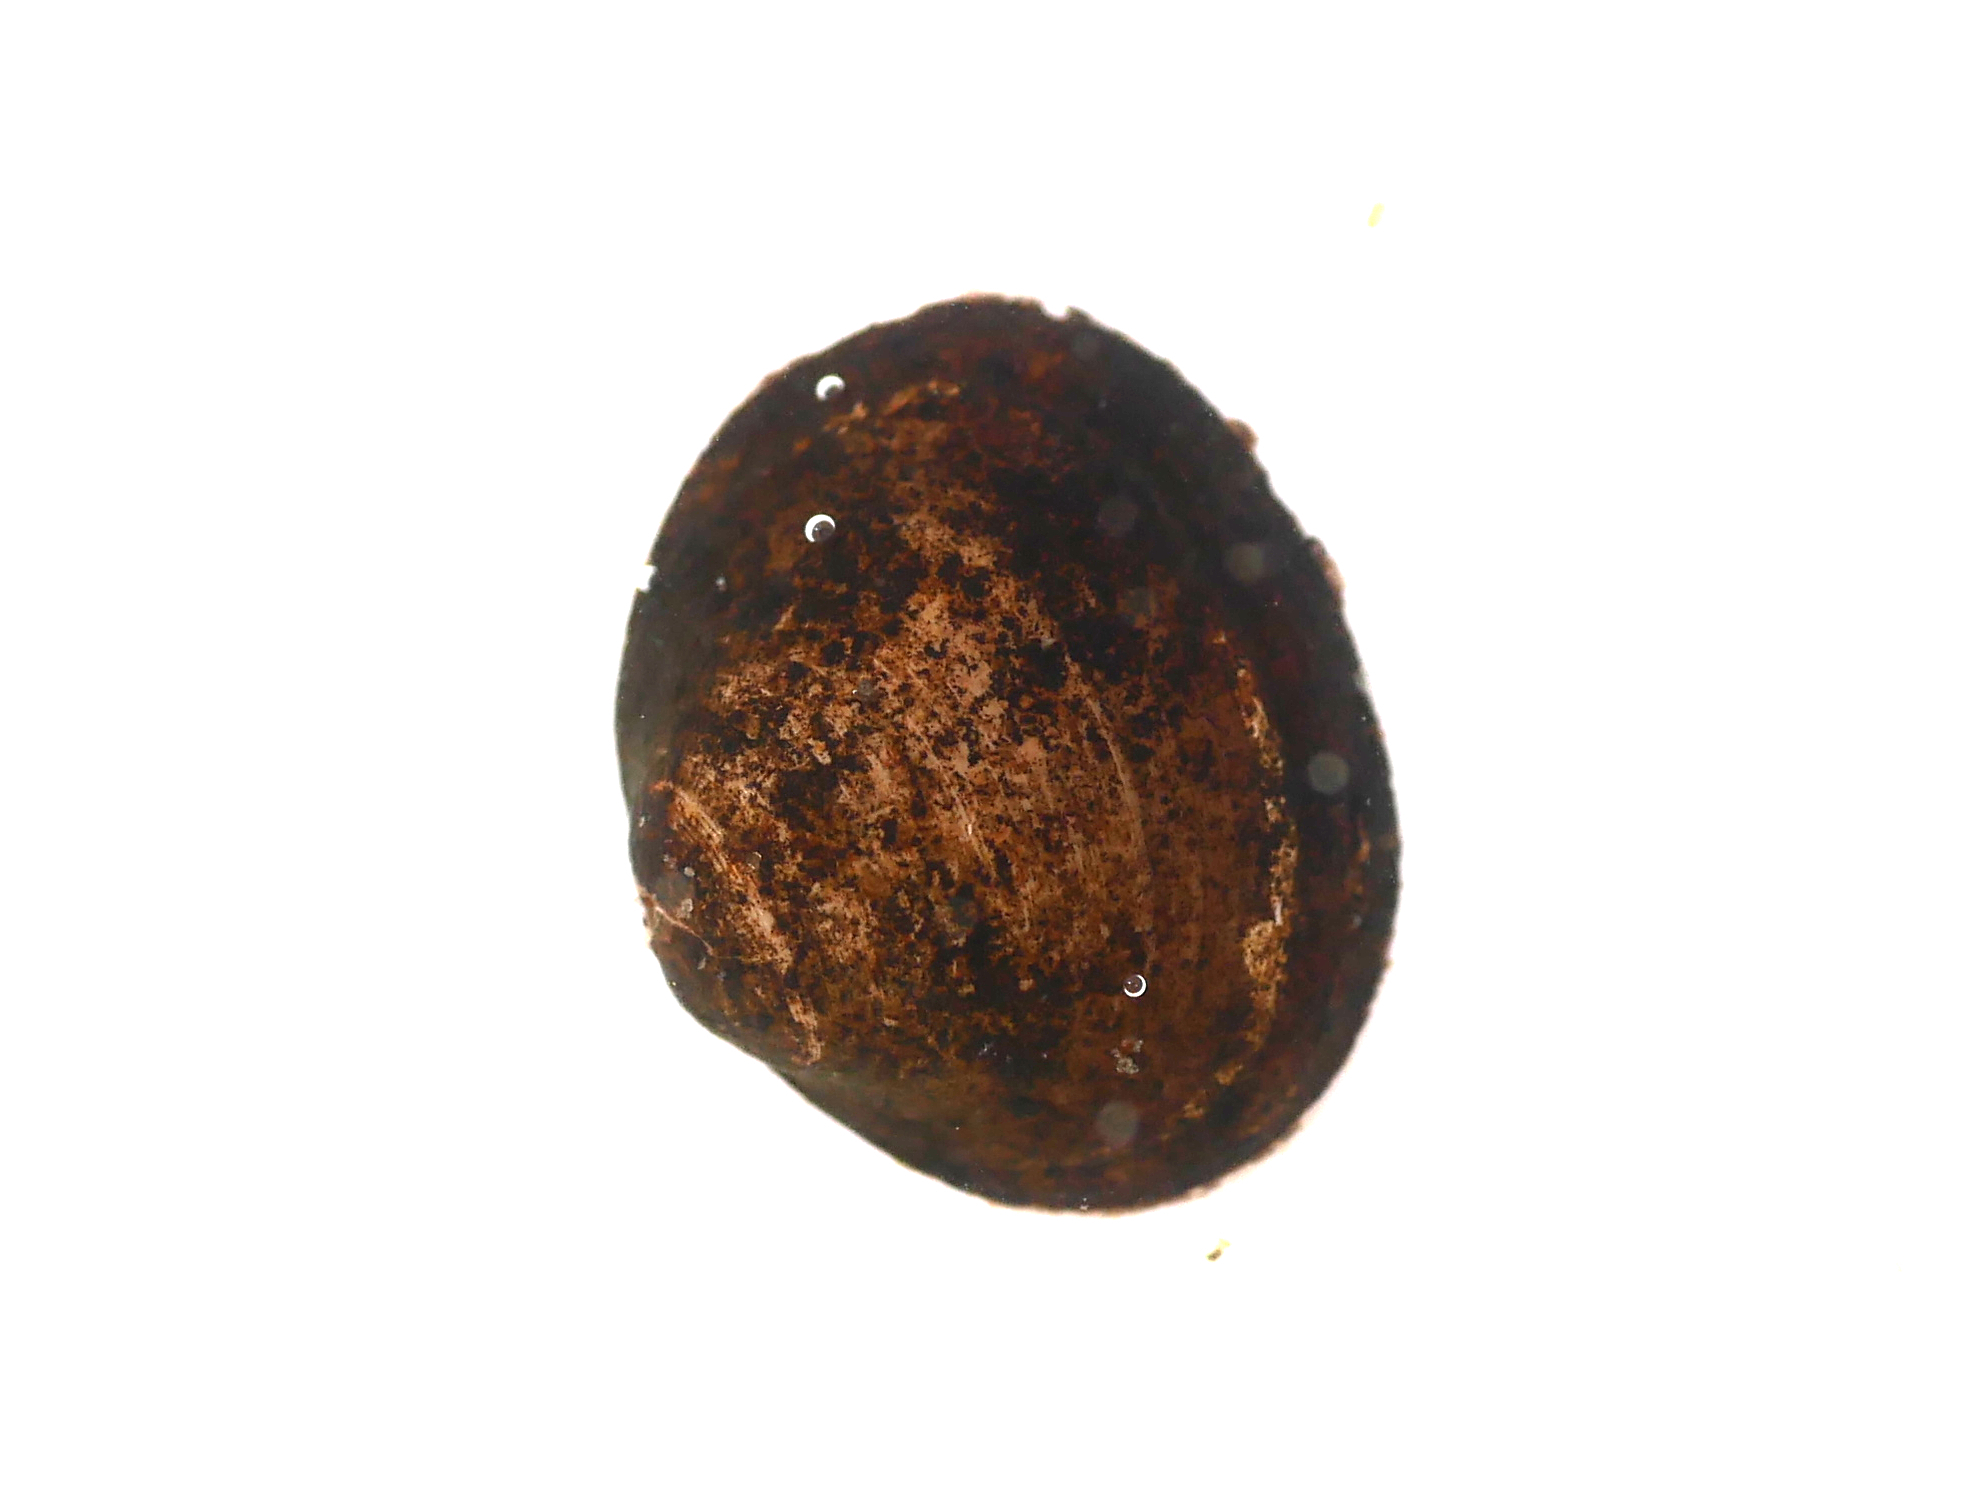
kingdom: Animalia
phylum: Mollusca
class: Bivalvia
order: Sphaeriida
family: Sphaeriidae
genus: Sphaerium
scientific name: Sphaerium corneum
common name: Horny orb mussel
